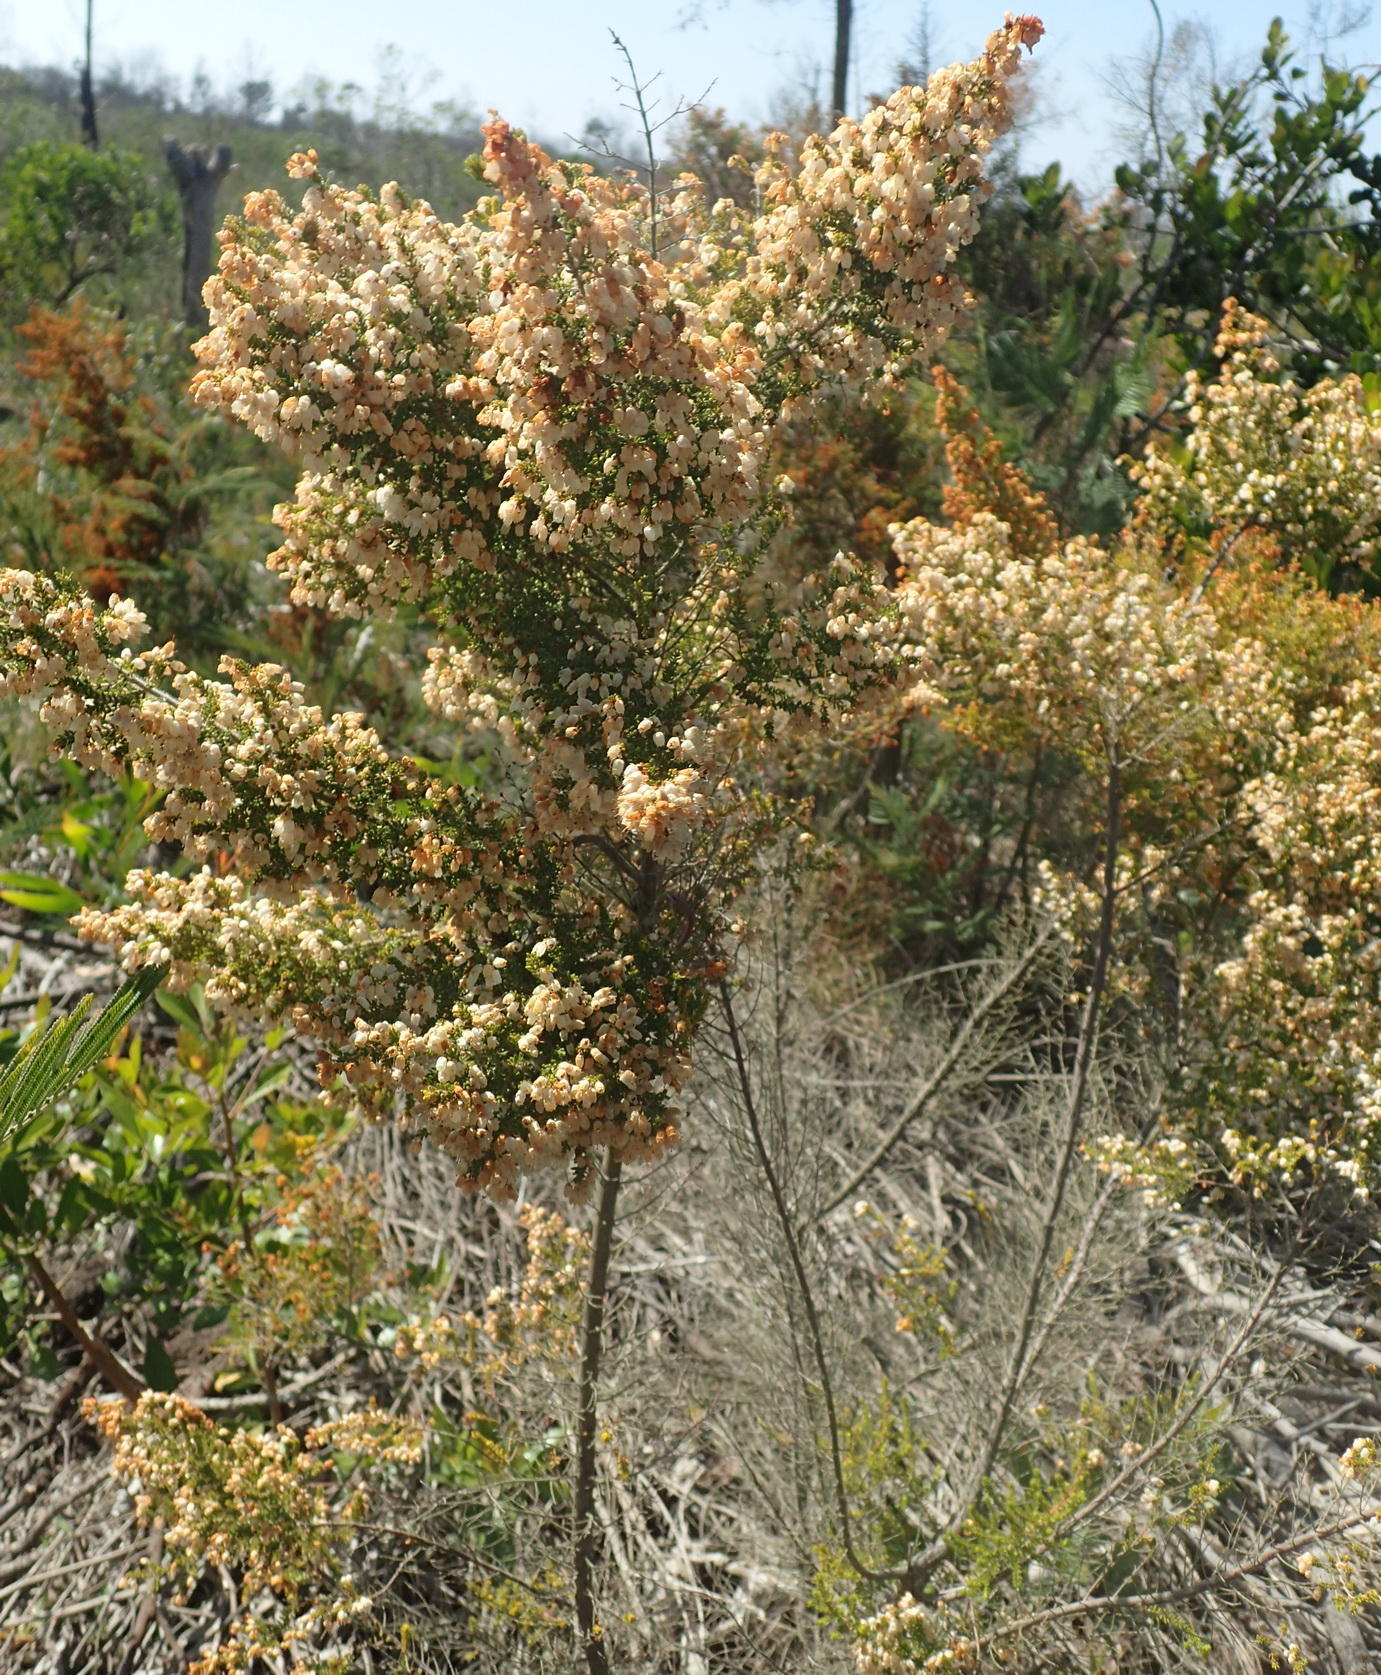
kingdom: Plantae
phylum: Tracheophyta
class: Magnoliopsida
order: Ericales
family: Ericaceae
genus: Erica
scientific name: Erica scabriuscula
